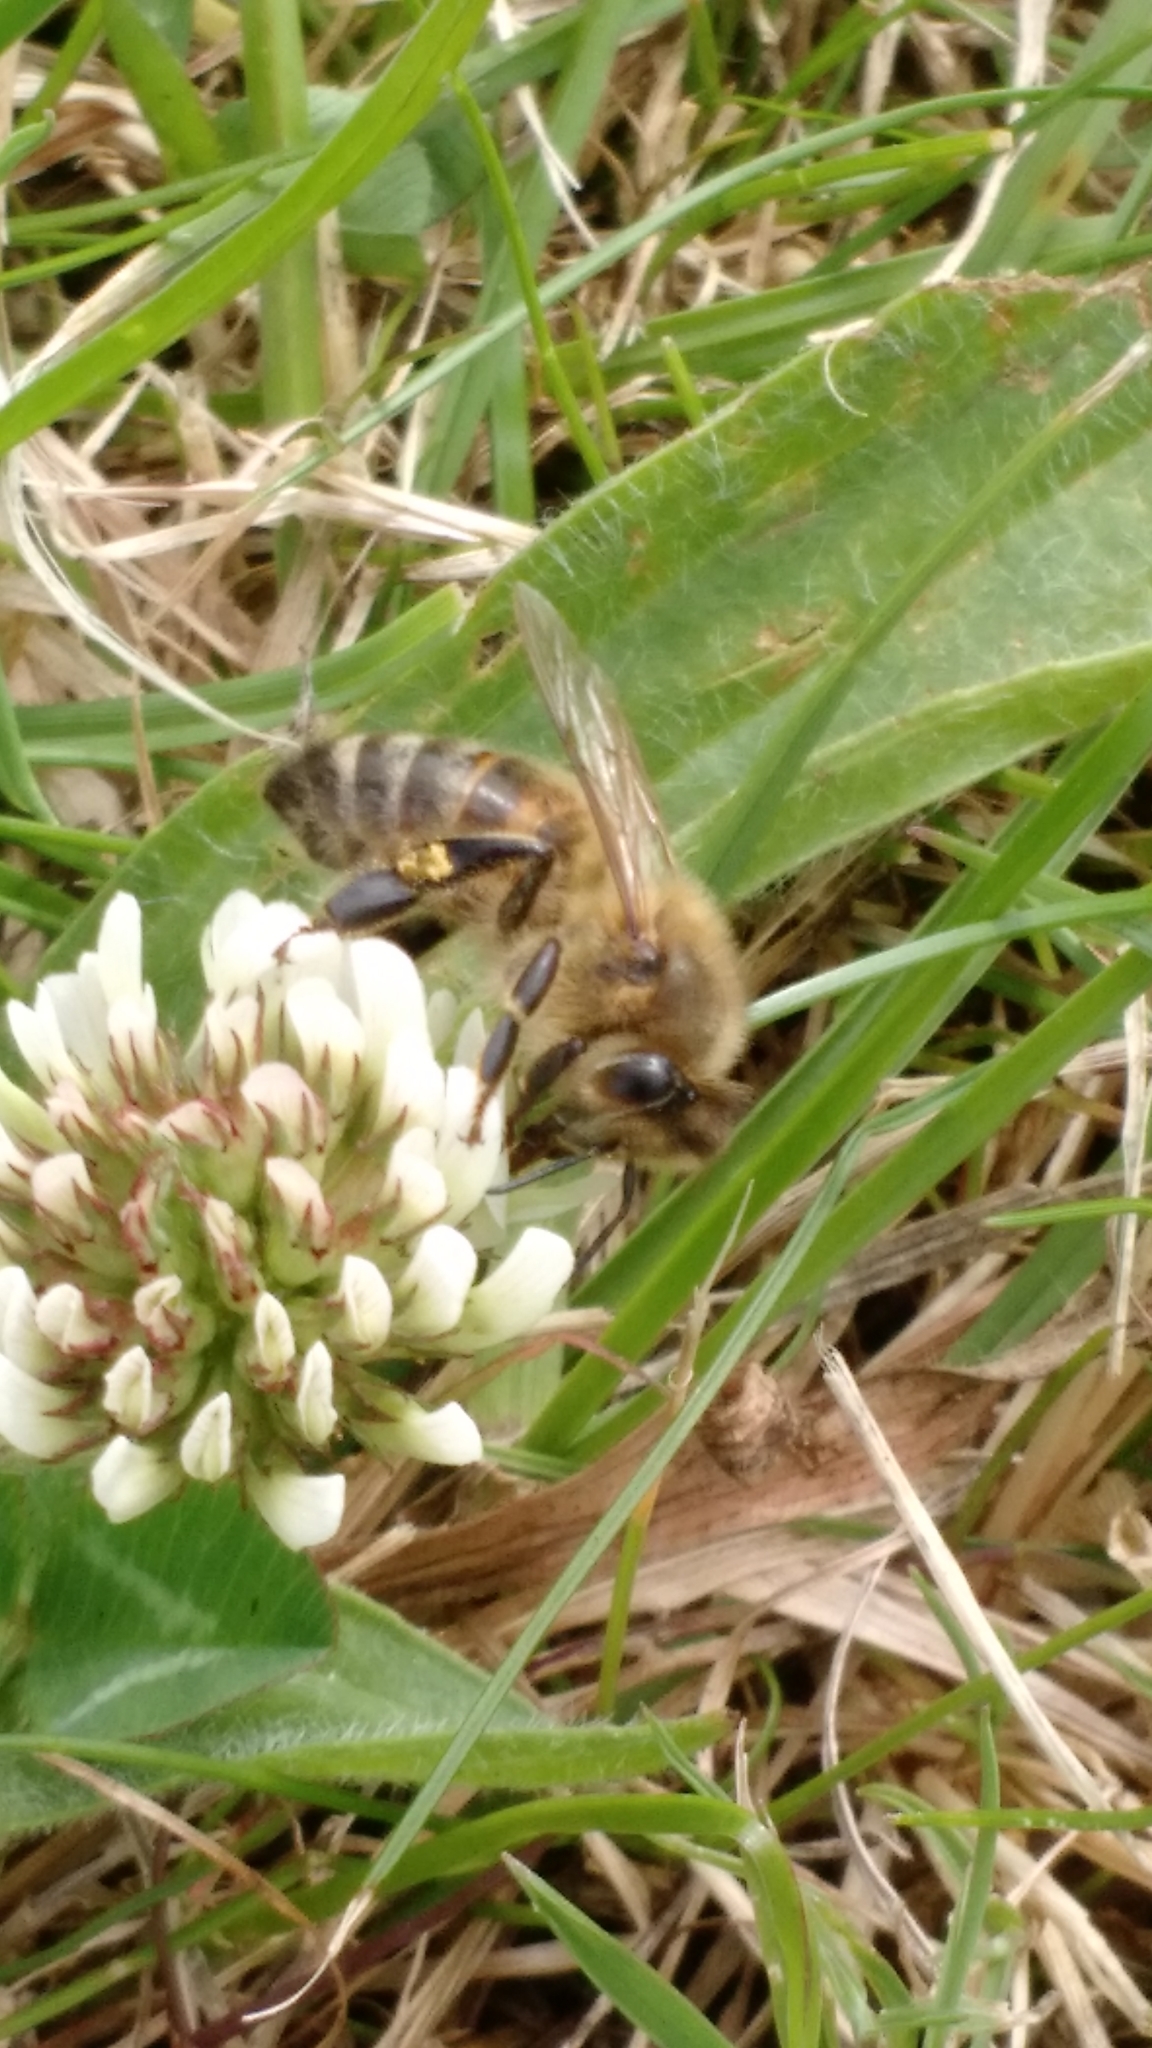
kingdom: Animalia
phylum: Arthropoda
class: Insecta
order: Hymenoptera
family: Apidae
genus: Apis
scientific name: Apis mellifera
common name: Honey bee
